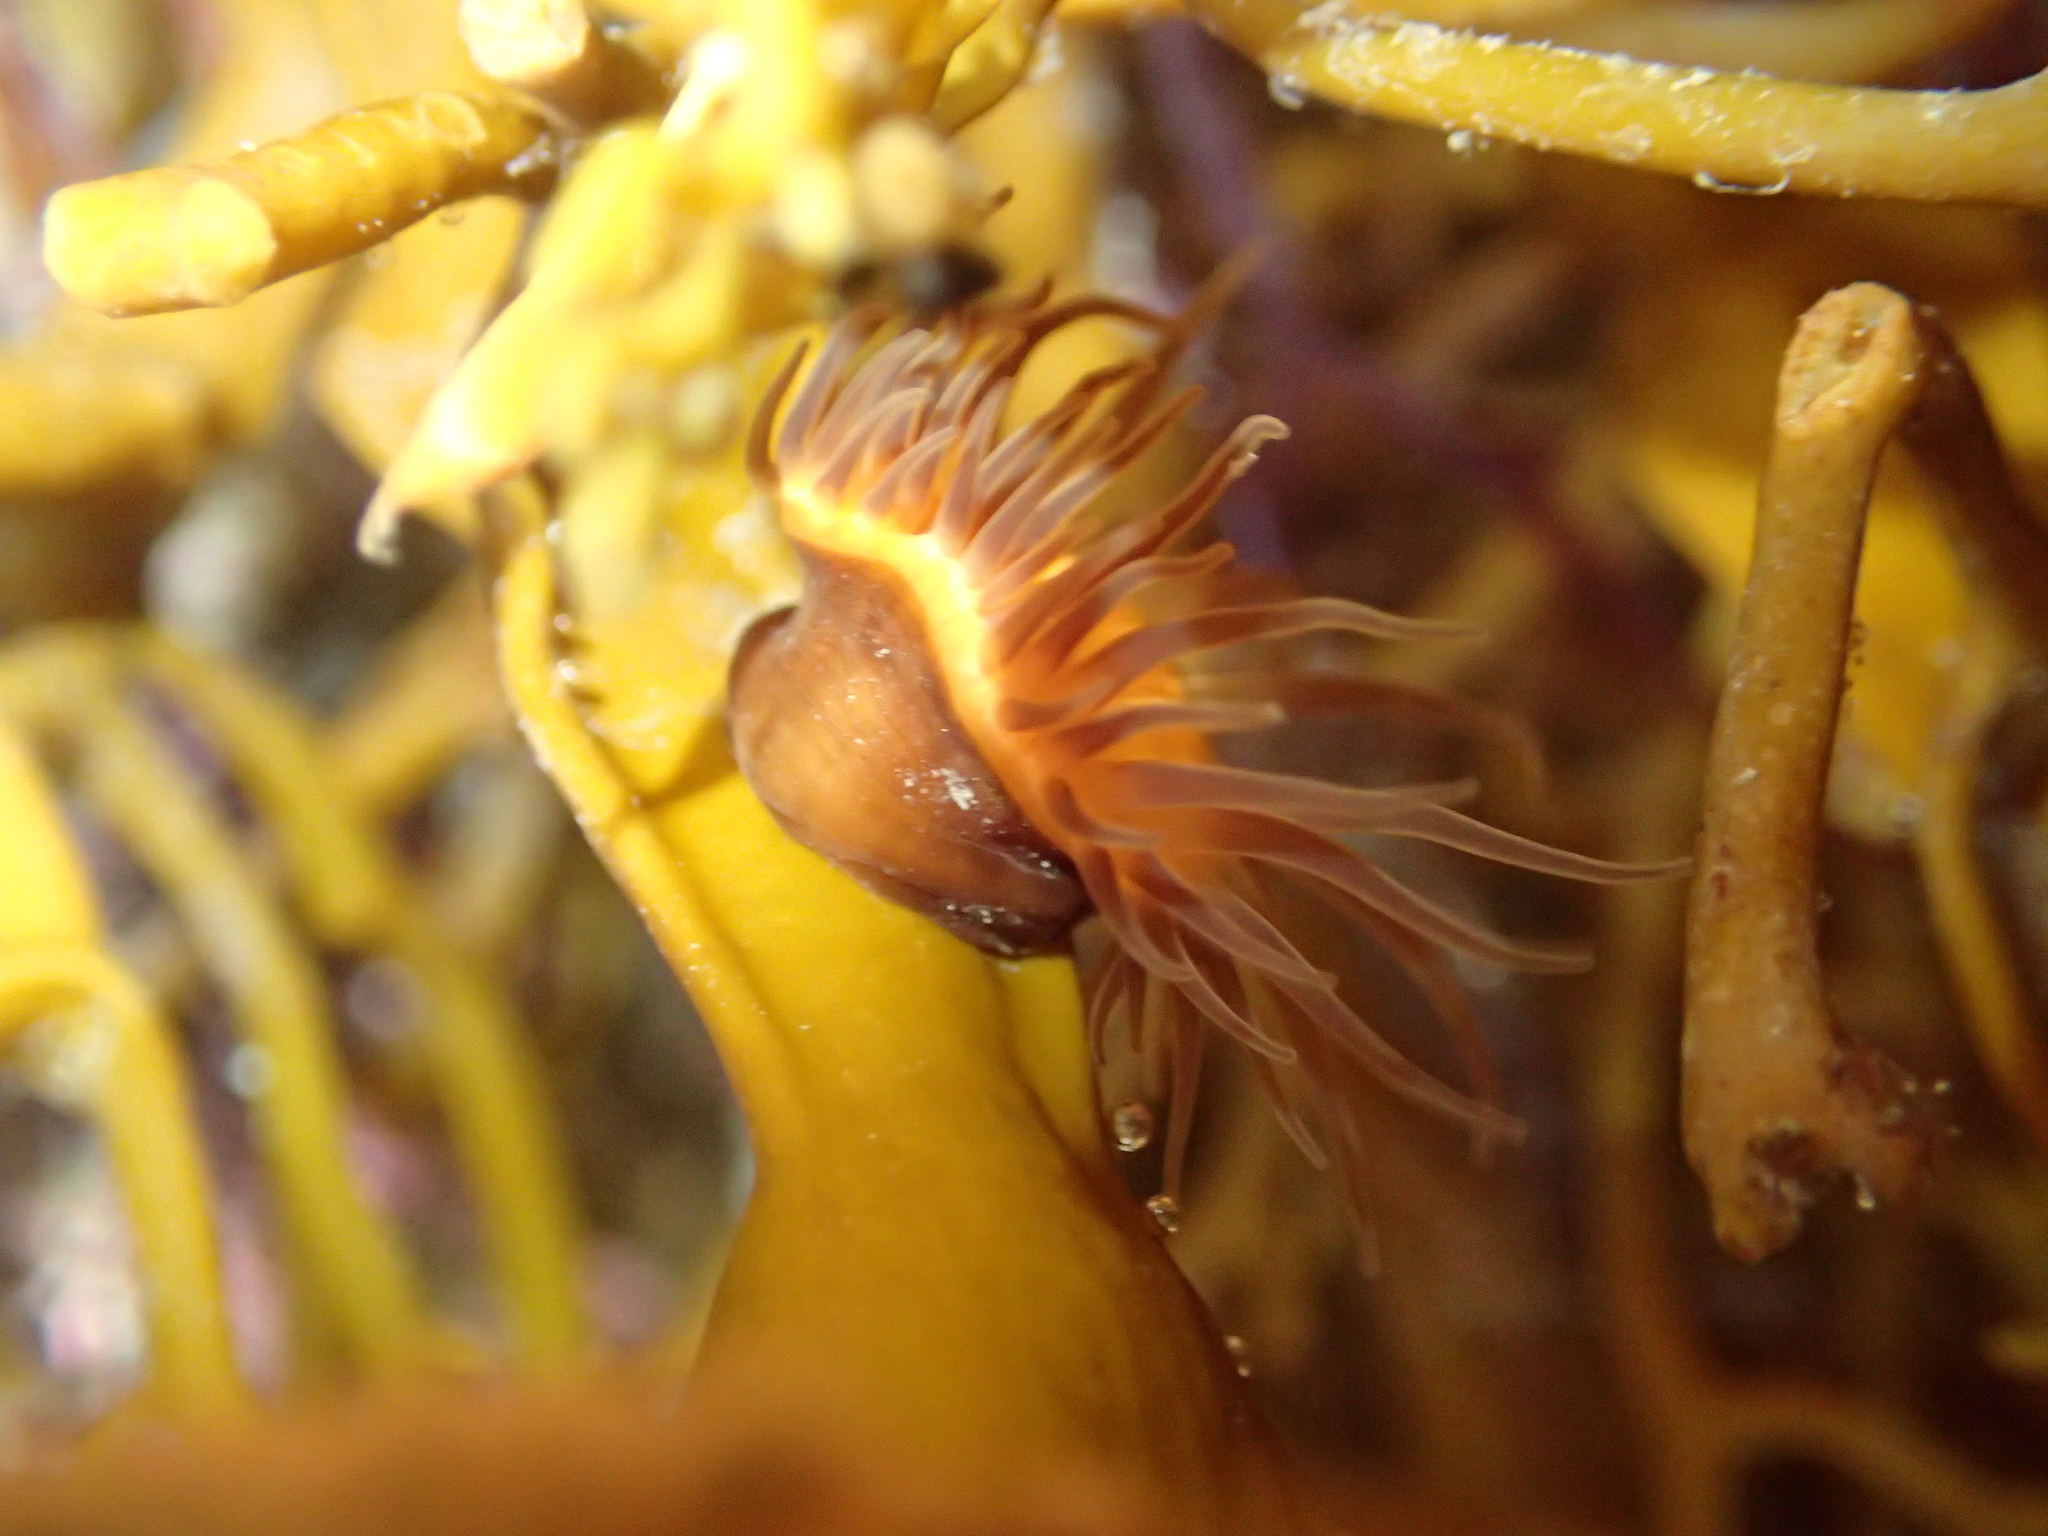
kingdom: Animalia
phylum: Cnidaria
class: Anthozoa
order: Actiniaria
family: Hormathiidae
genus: Handactis
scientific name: Handactis nutrix
